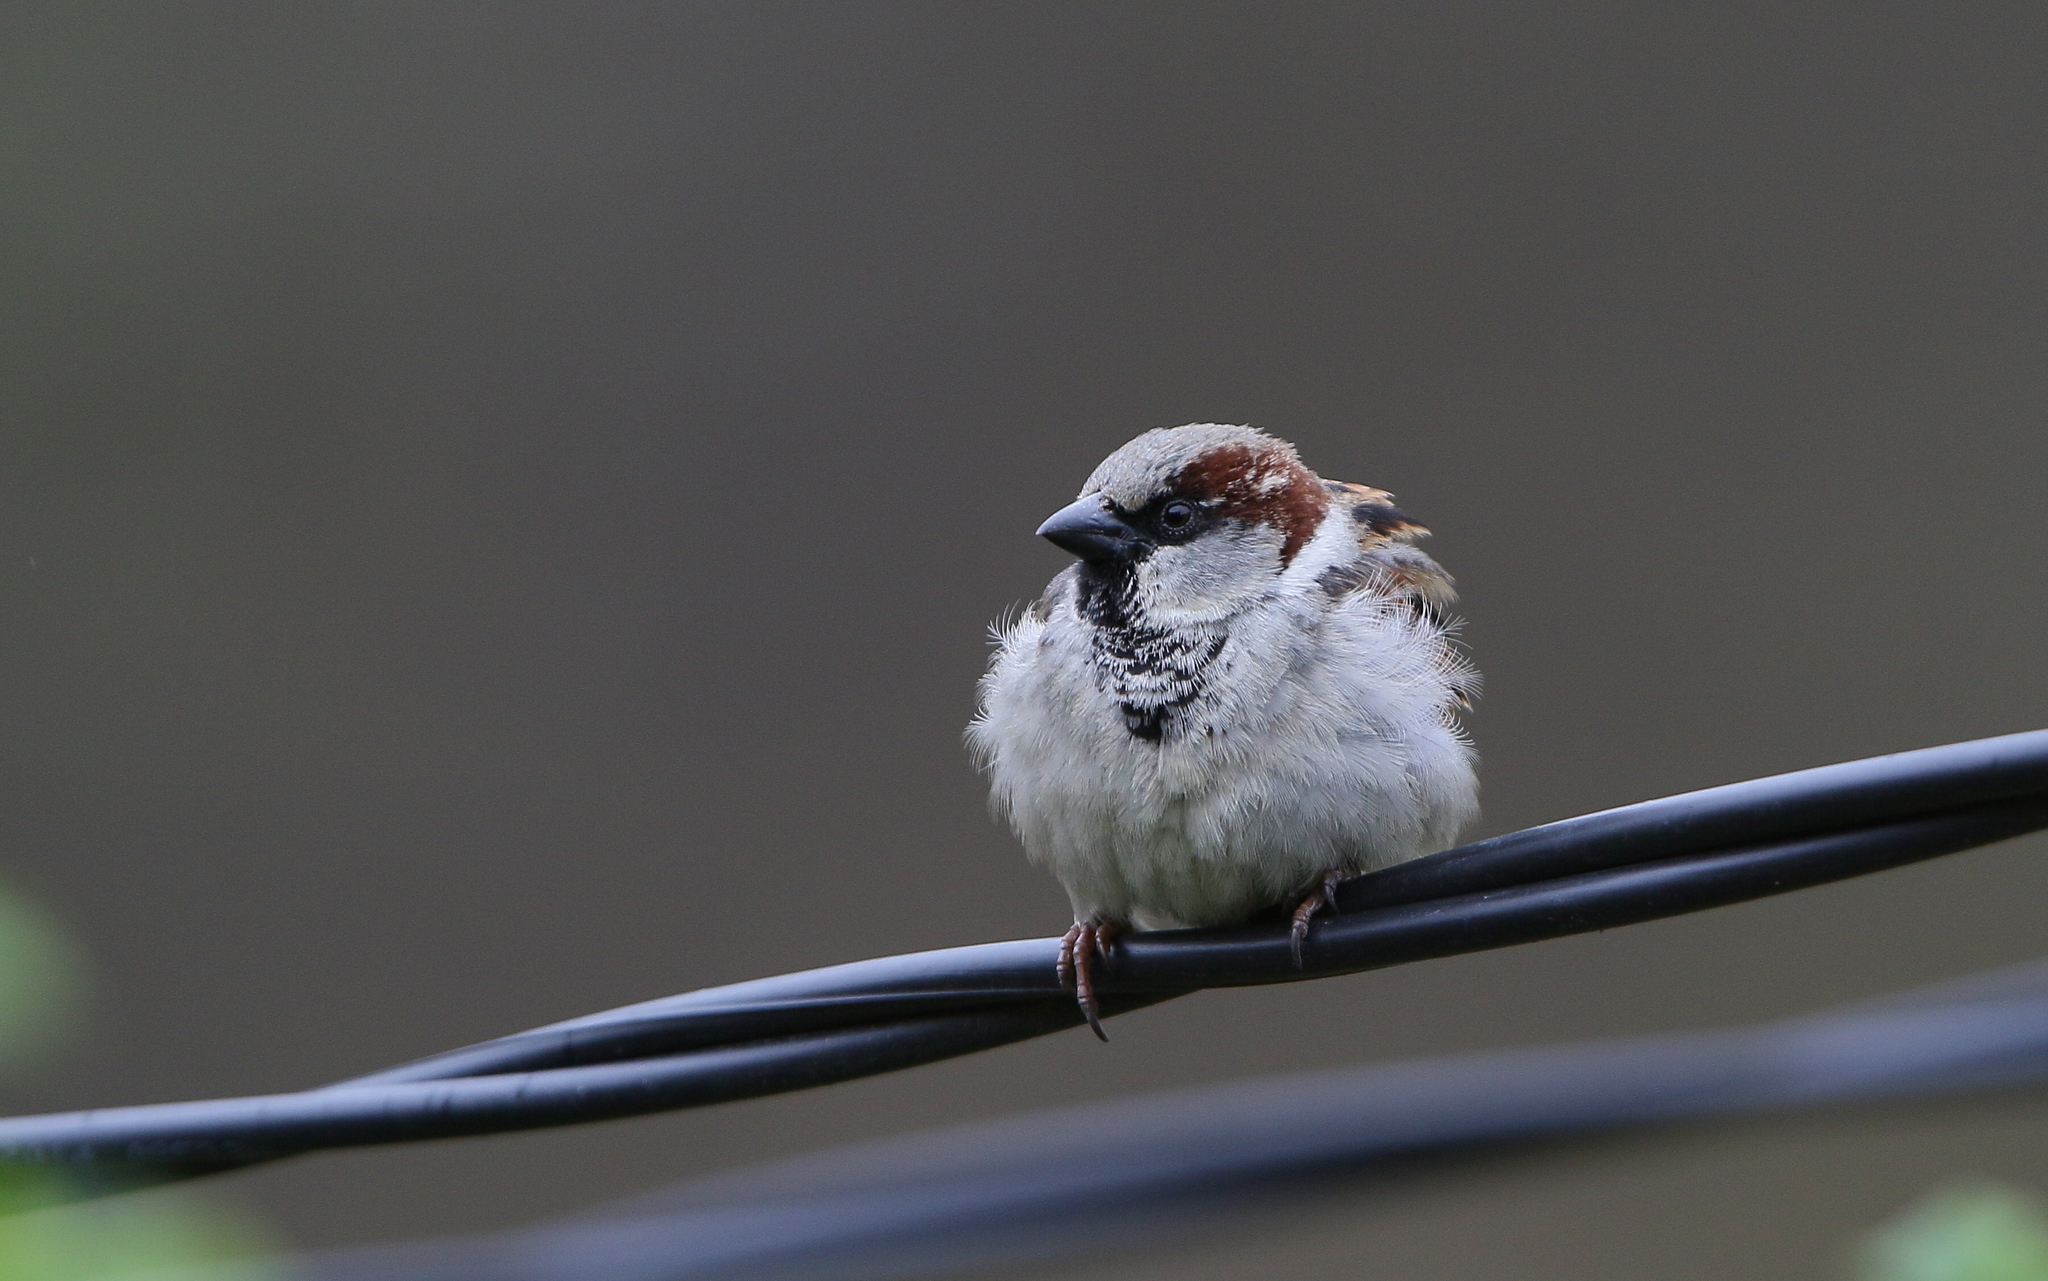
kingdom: Animalia
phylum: Chordata
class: Aves
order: Passeriformes
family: Passeridae
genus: Passer
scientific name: Passer domesticus
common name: House sparrow
